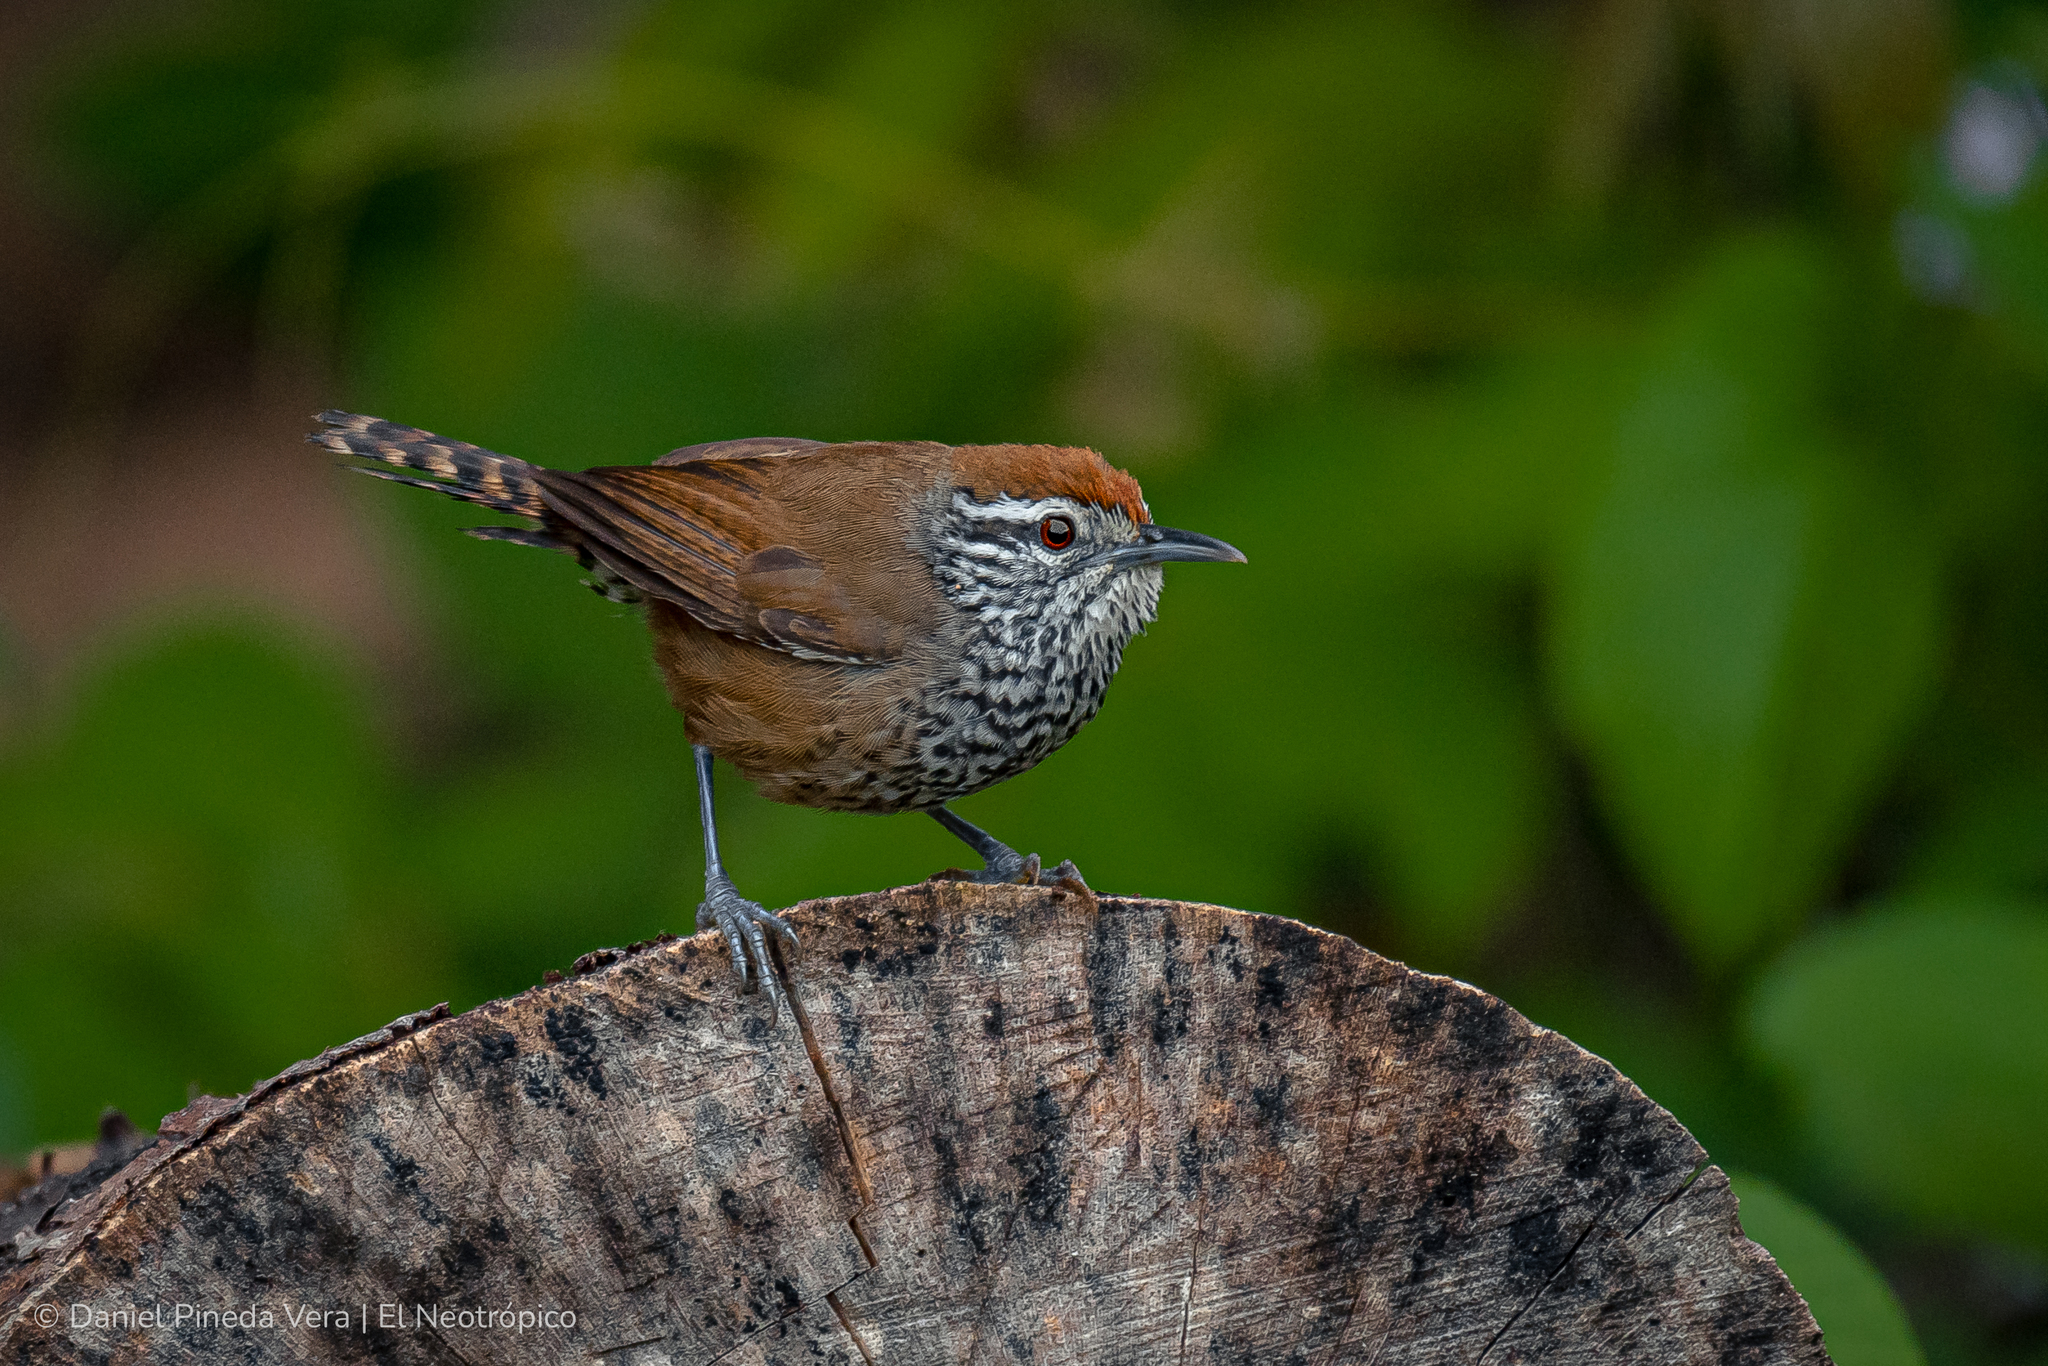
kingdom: Animalia
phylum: Chordata
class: Aves
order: Passeriformes
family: Troglodytidae
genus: Pheugopedius
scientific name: Pheugopedius maculipectus
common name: Spot-breasted wren
